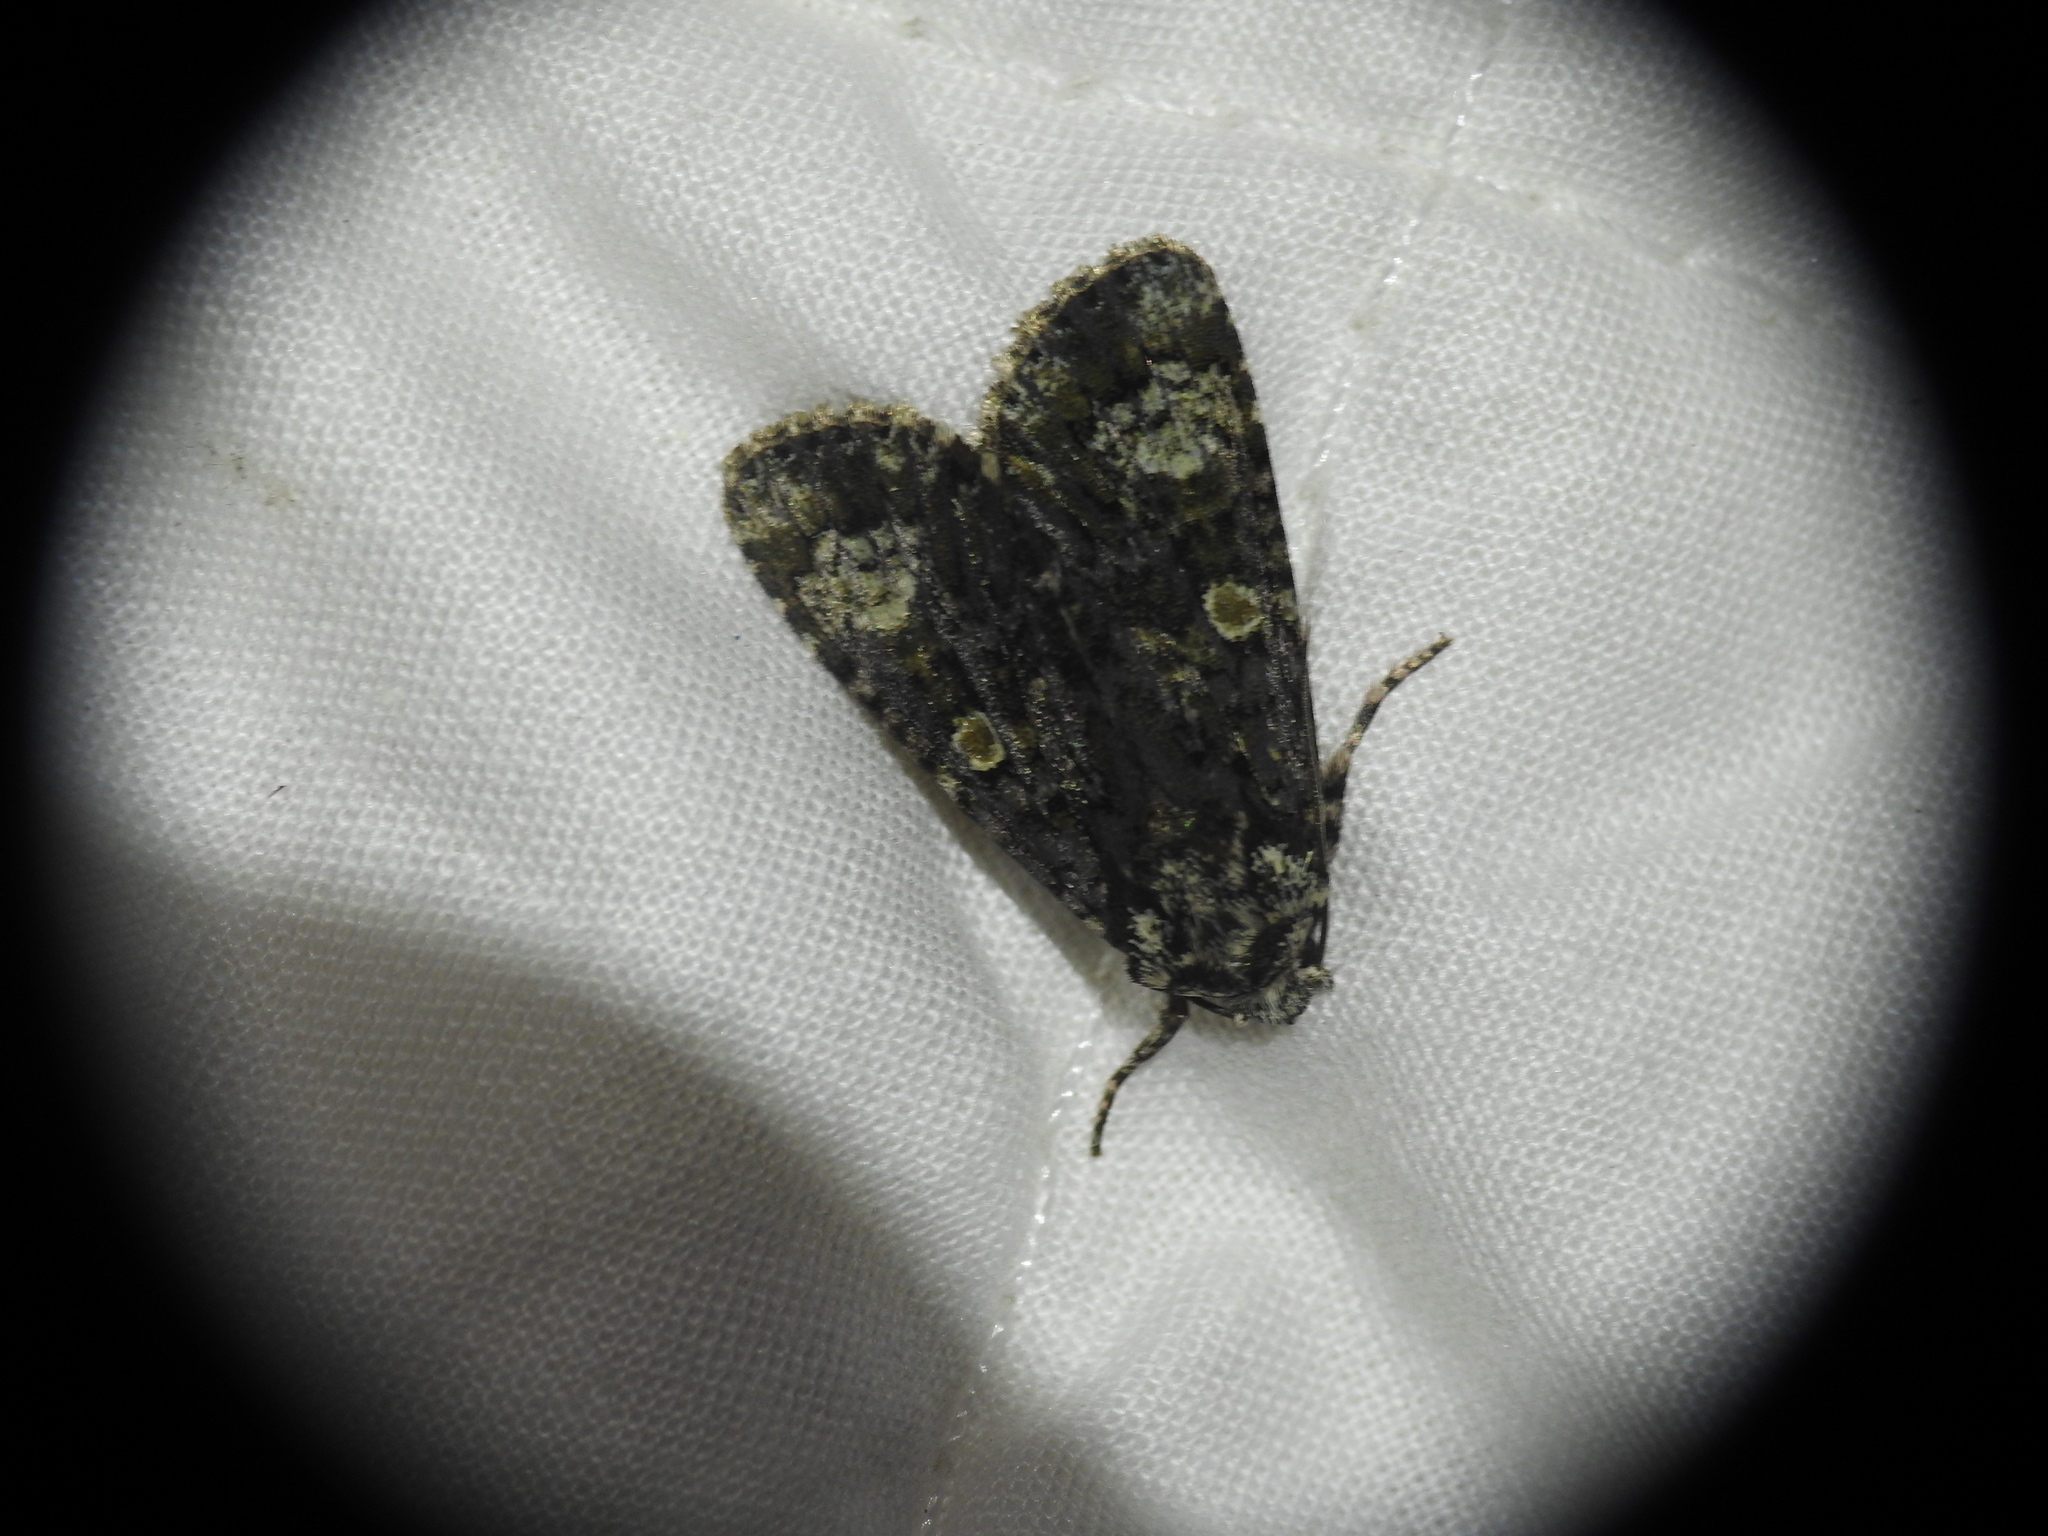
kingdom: Animalia
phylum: Arthropoda
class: Insecta
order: Lepidoptera
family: Noctuidae
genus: Craniophora
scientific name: Craniophora ligustri
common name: Coronet
